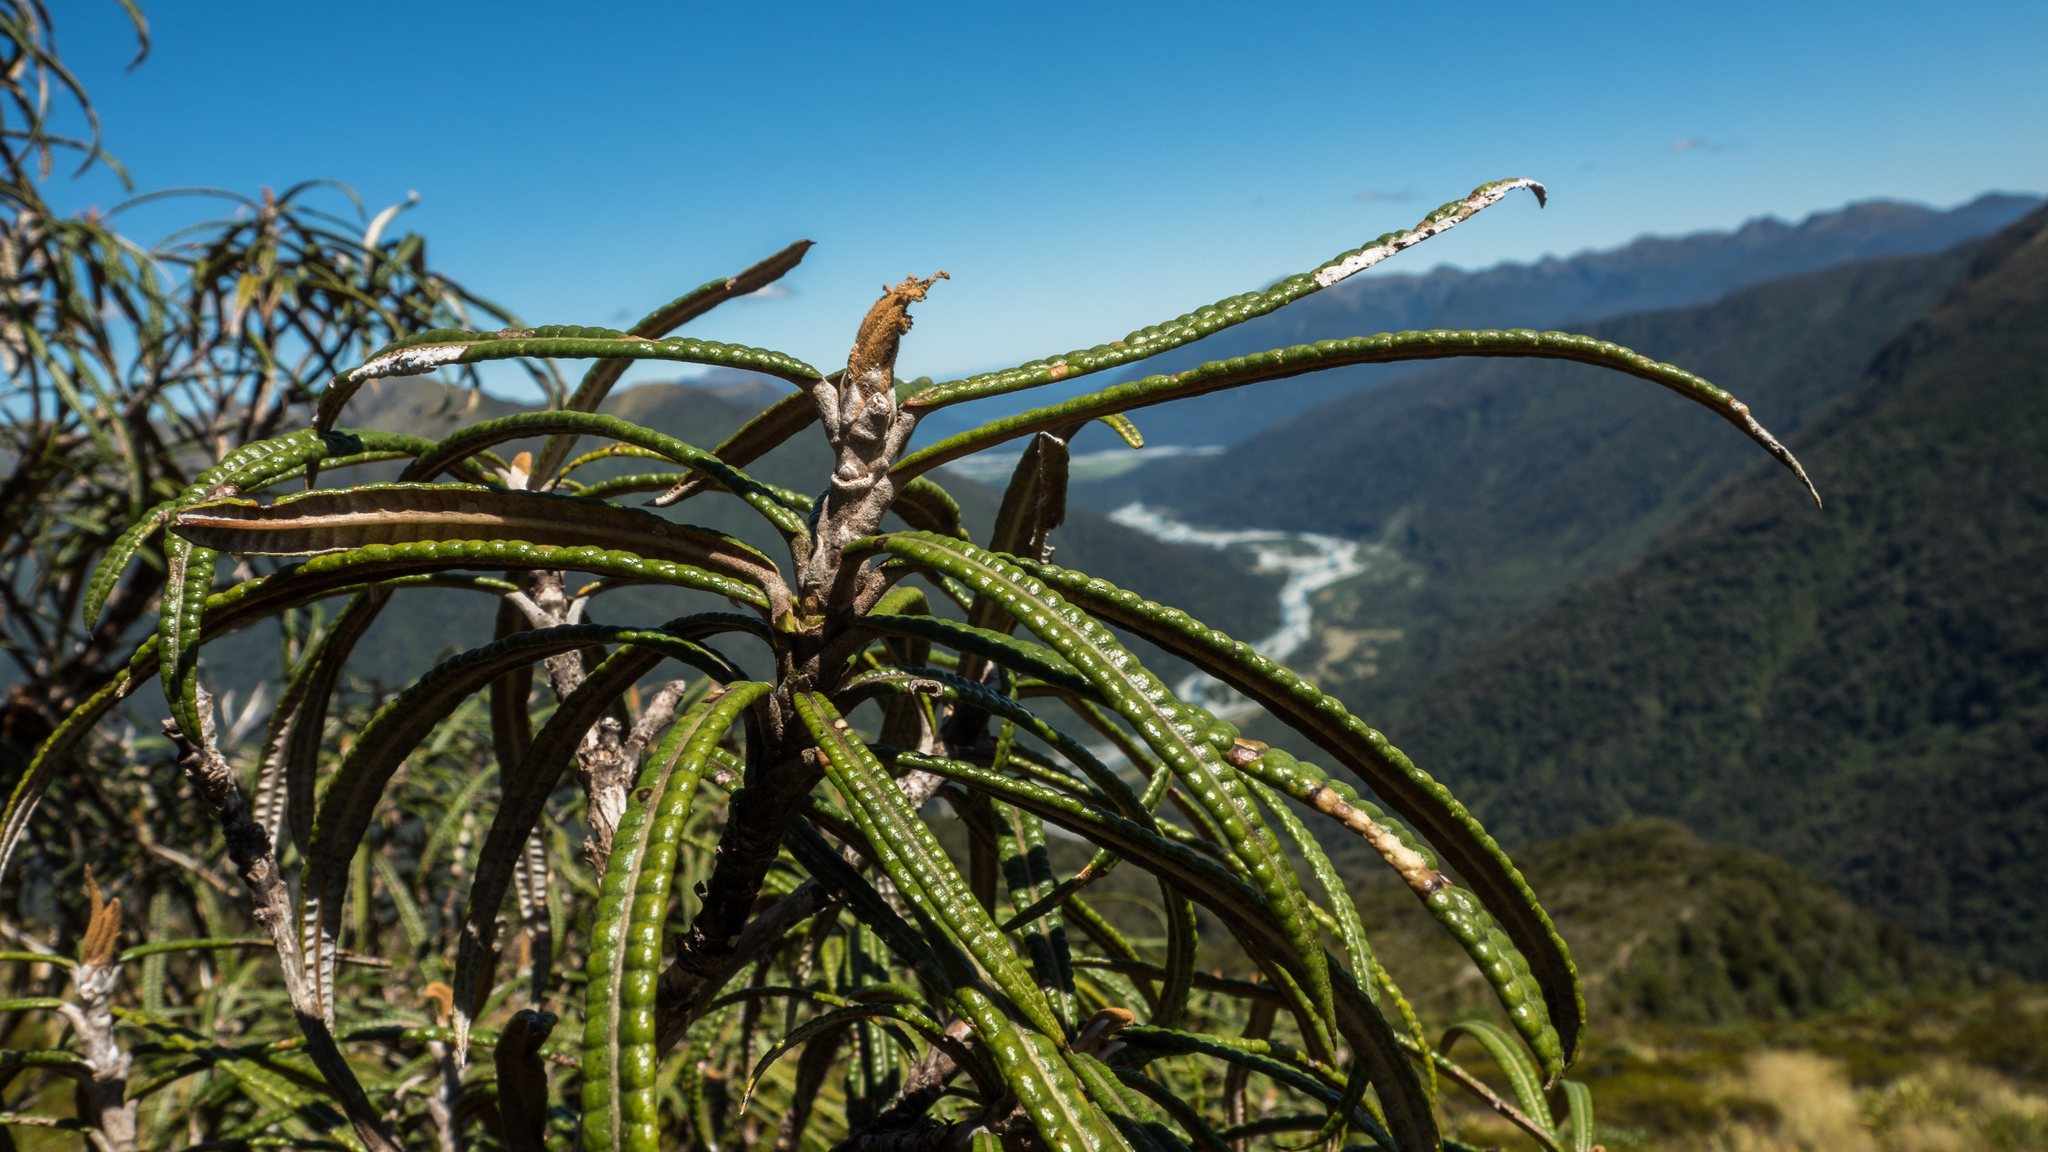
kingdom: Plantae
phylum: Tracheophyta
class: Magnoliopsida
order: Asterales
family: Asteraceae
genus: Olearia
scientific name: Olearia lacunosa
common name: Lancewood tree daisy
